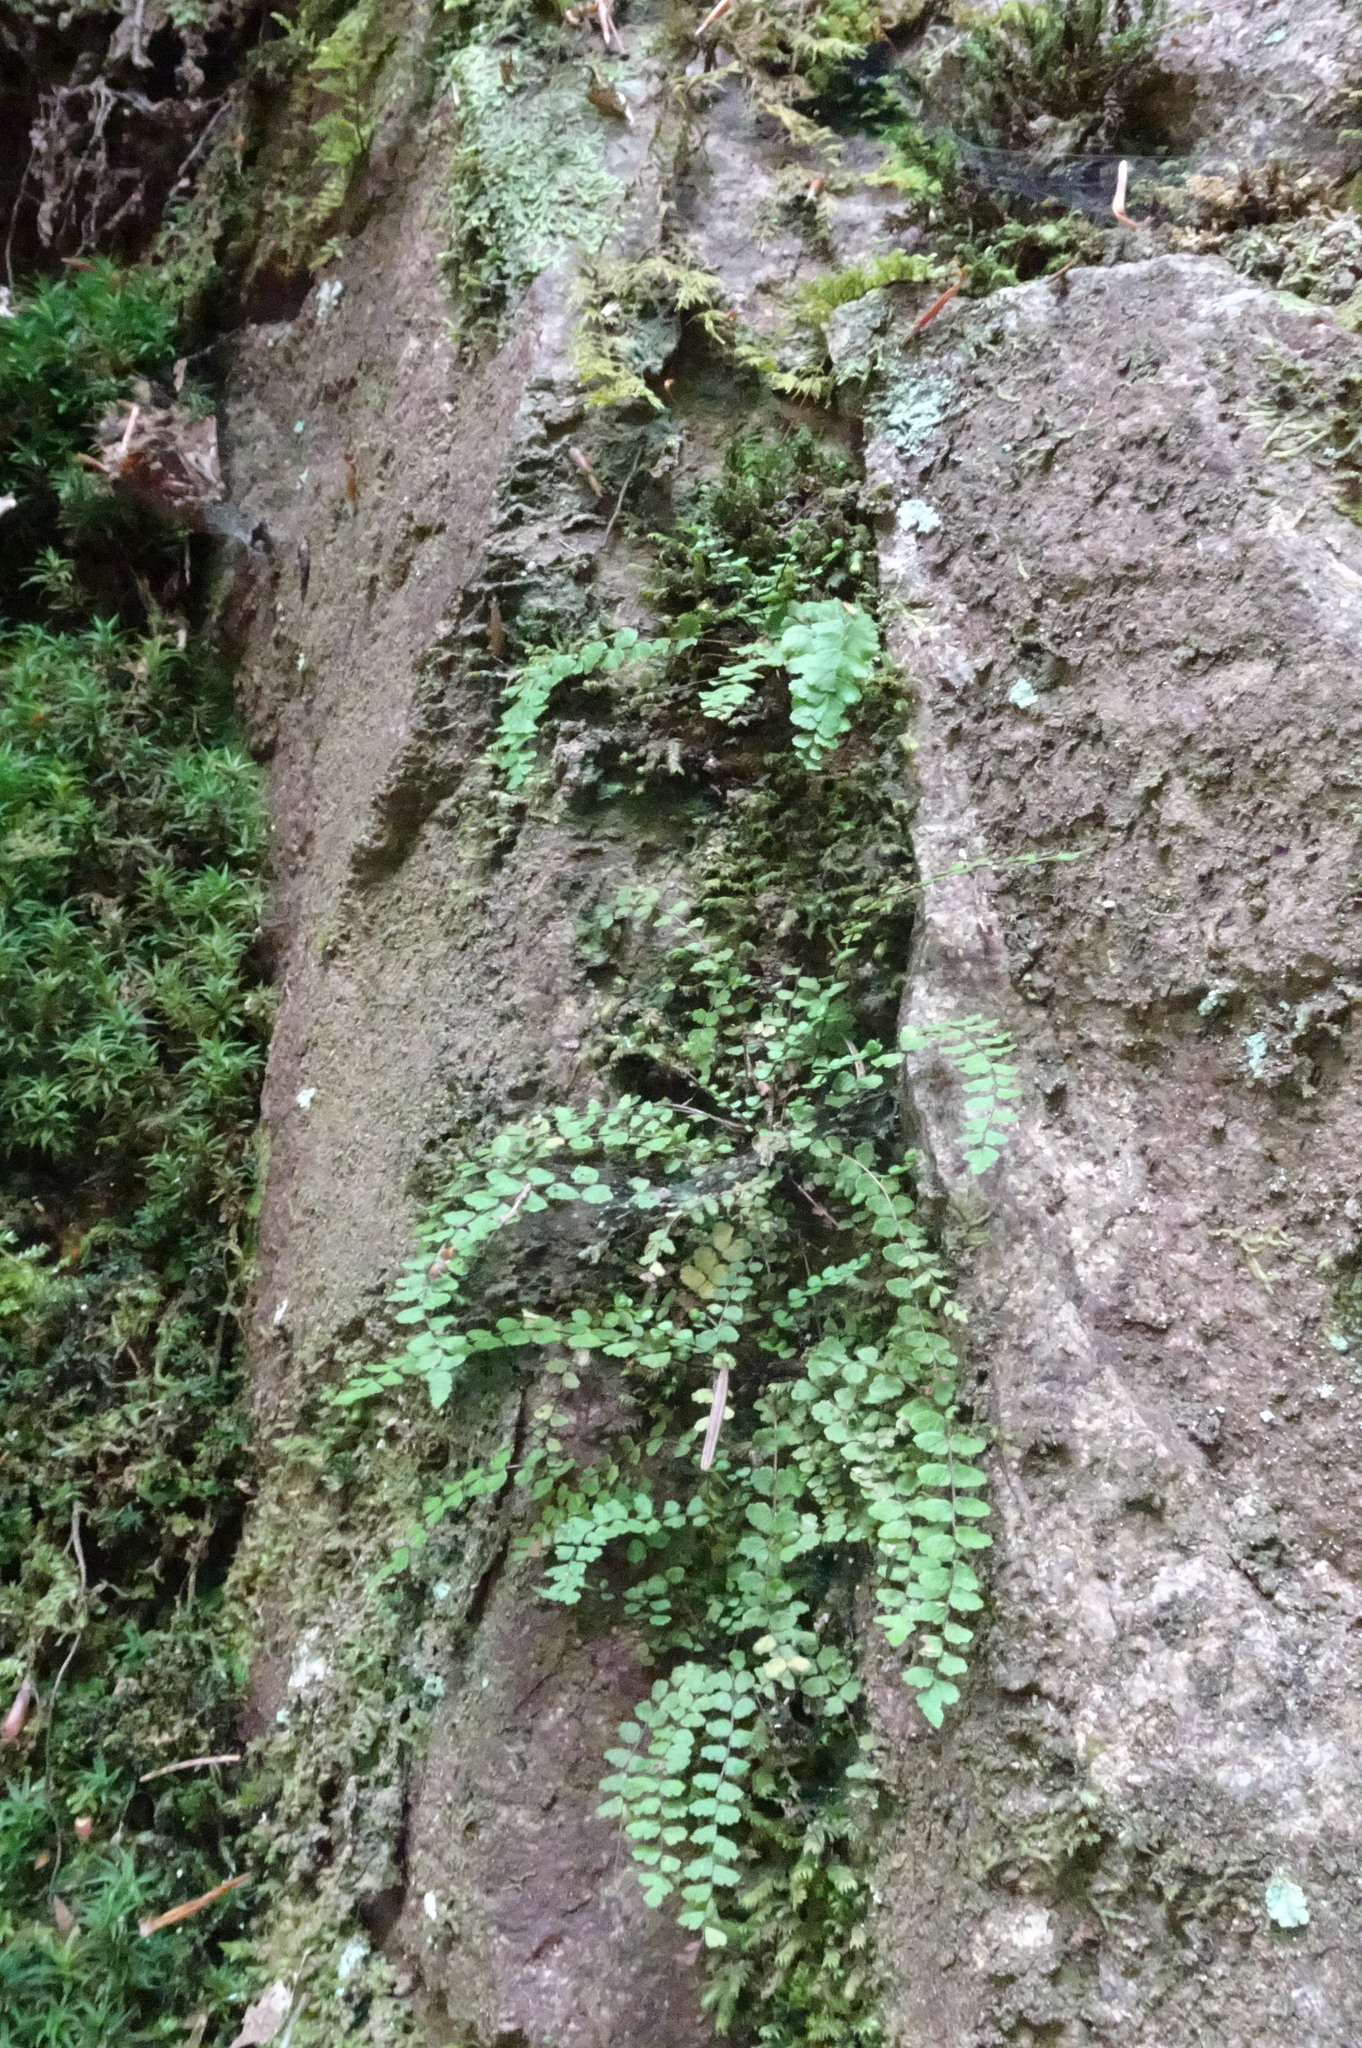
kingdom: Plantae
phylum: Tracheophyta
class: Polypodiopsida
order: Polypodiales
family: Aspleniaceae
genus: Asplenium
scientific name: Asplenium trichomanes
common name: Maidenhair spleenwort
